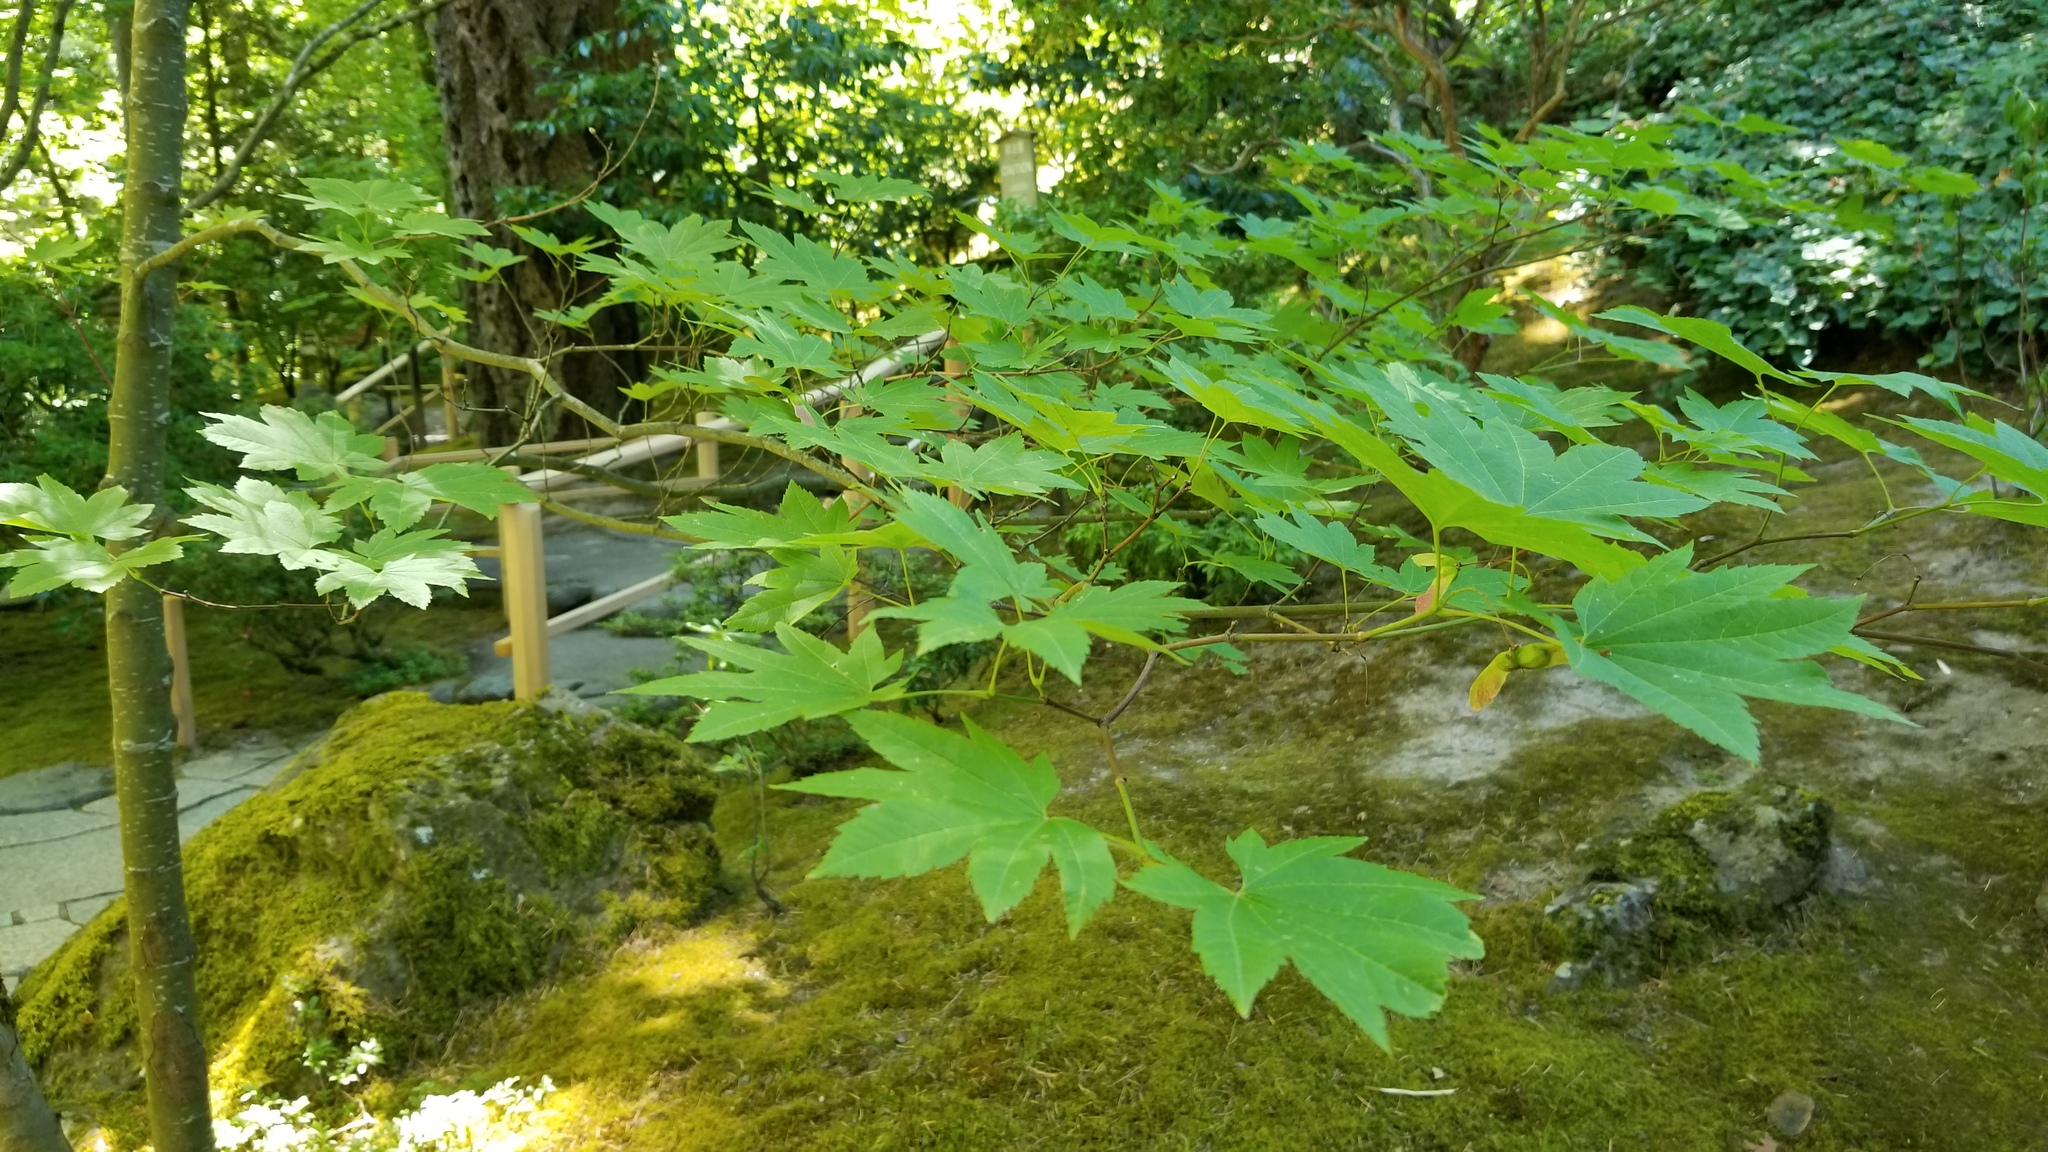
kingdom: Plantae
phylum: Tracheophyta
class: Magnoliopsida
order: Sapindales
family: Sapindaceae
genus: Acer
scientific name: Acer circinatum
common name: Vine maple
